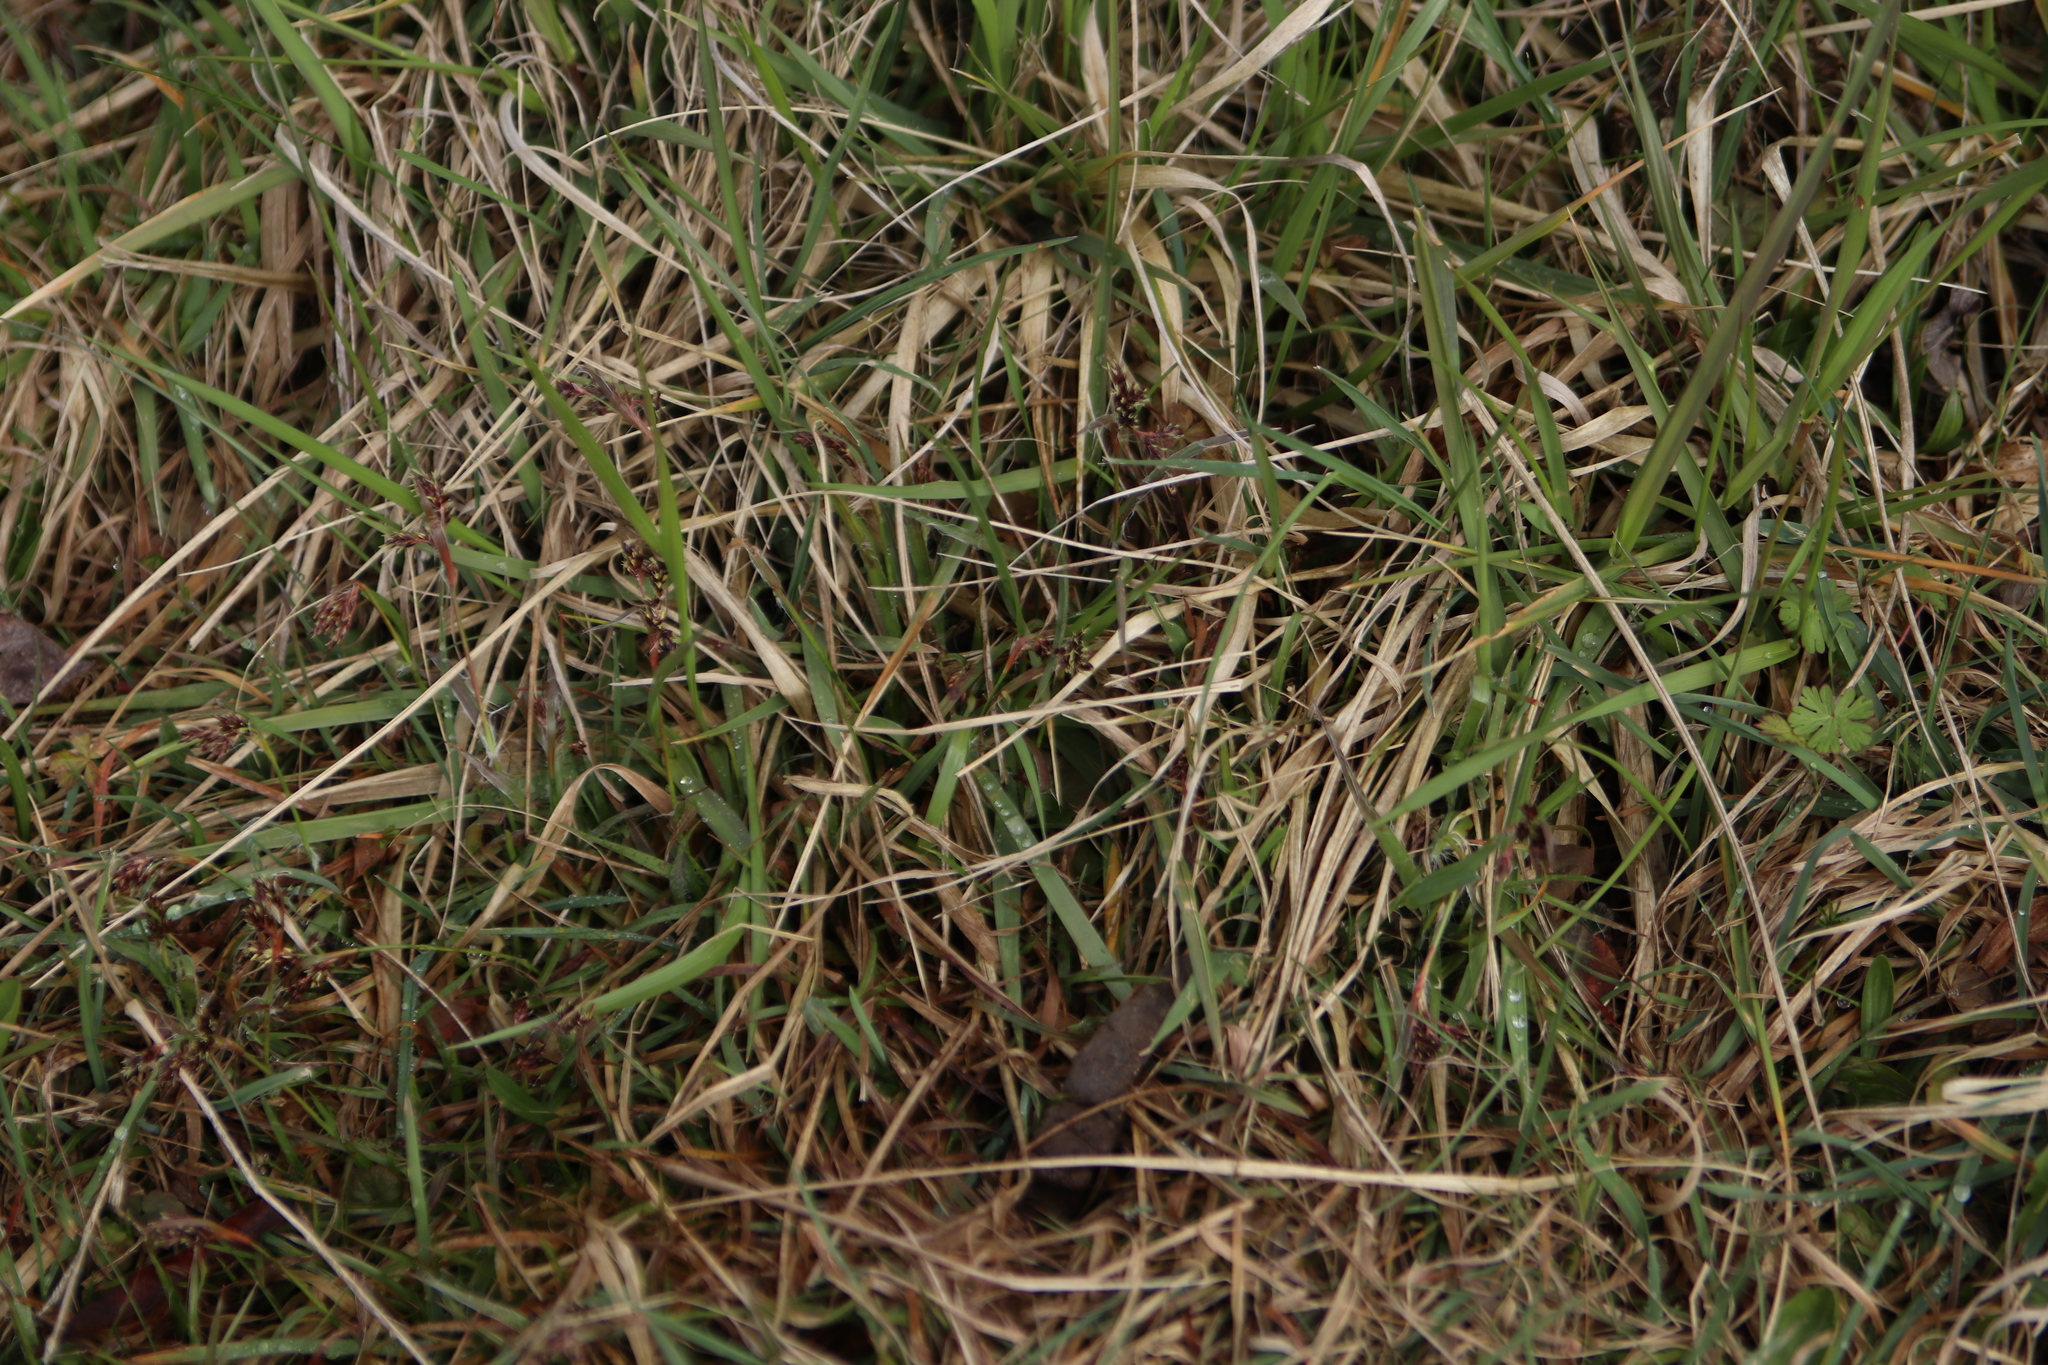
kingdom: Plantae
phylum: Tracheophyta
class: Liliopsida
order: Poales
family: Juncaceae
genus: Luzula
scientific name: Luzula campestris
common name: Field wood-rush
